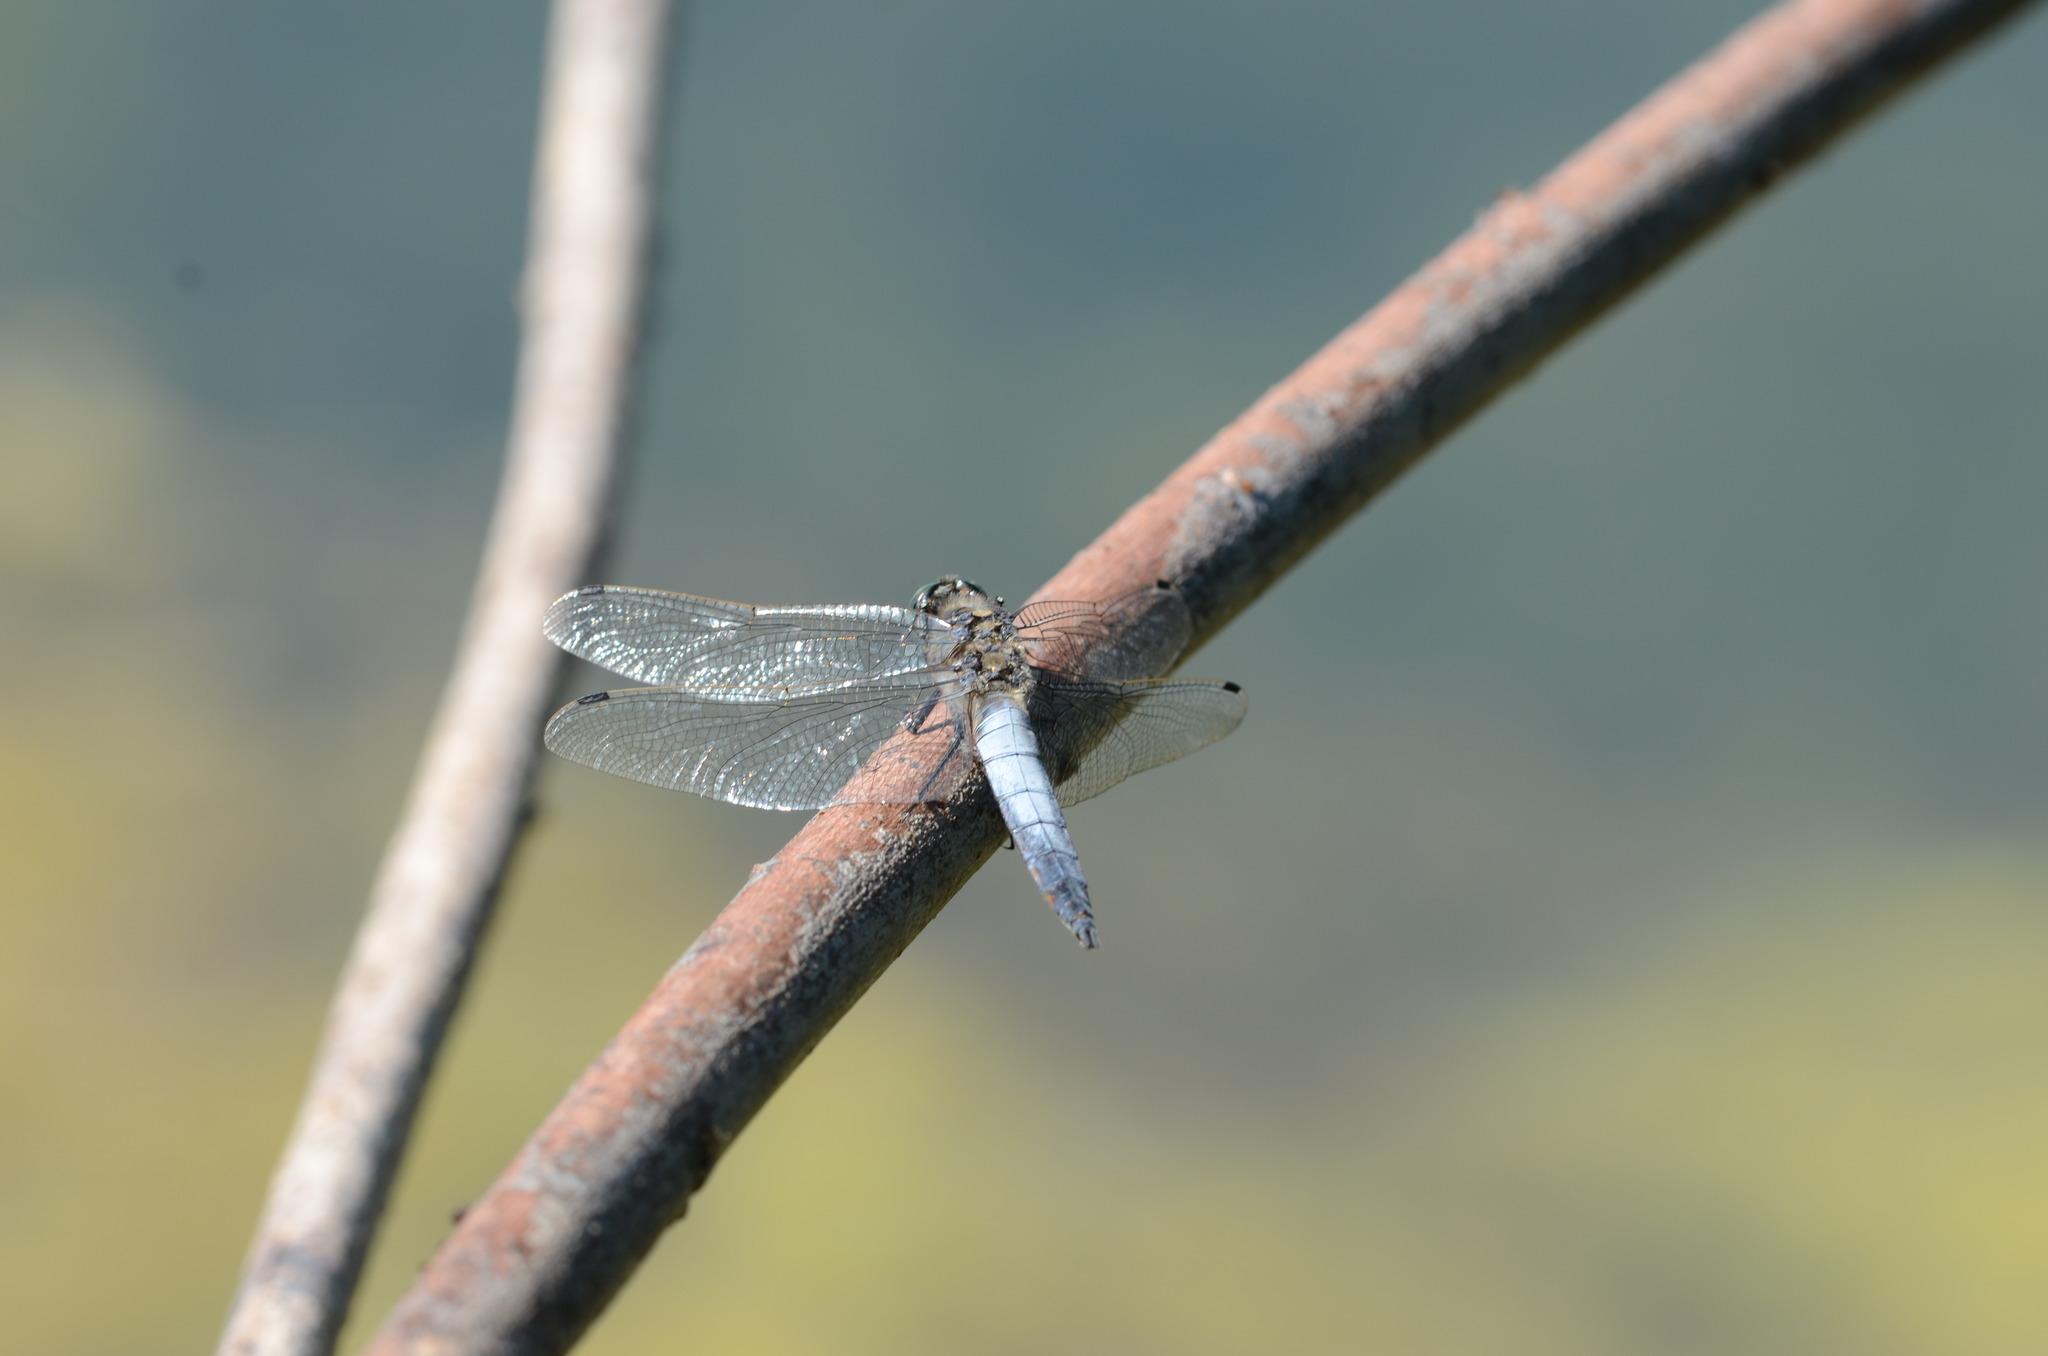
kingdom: Animalia
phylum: Arthropoda
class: Insecta
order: Odonata
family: Libellulidae
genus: Orthetrum
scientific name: Orthetrum cancellatum
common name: Black-tailed skimmer
